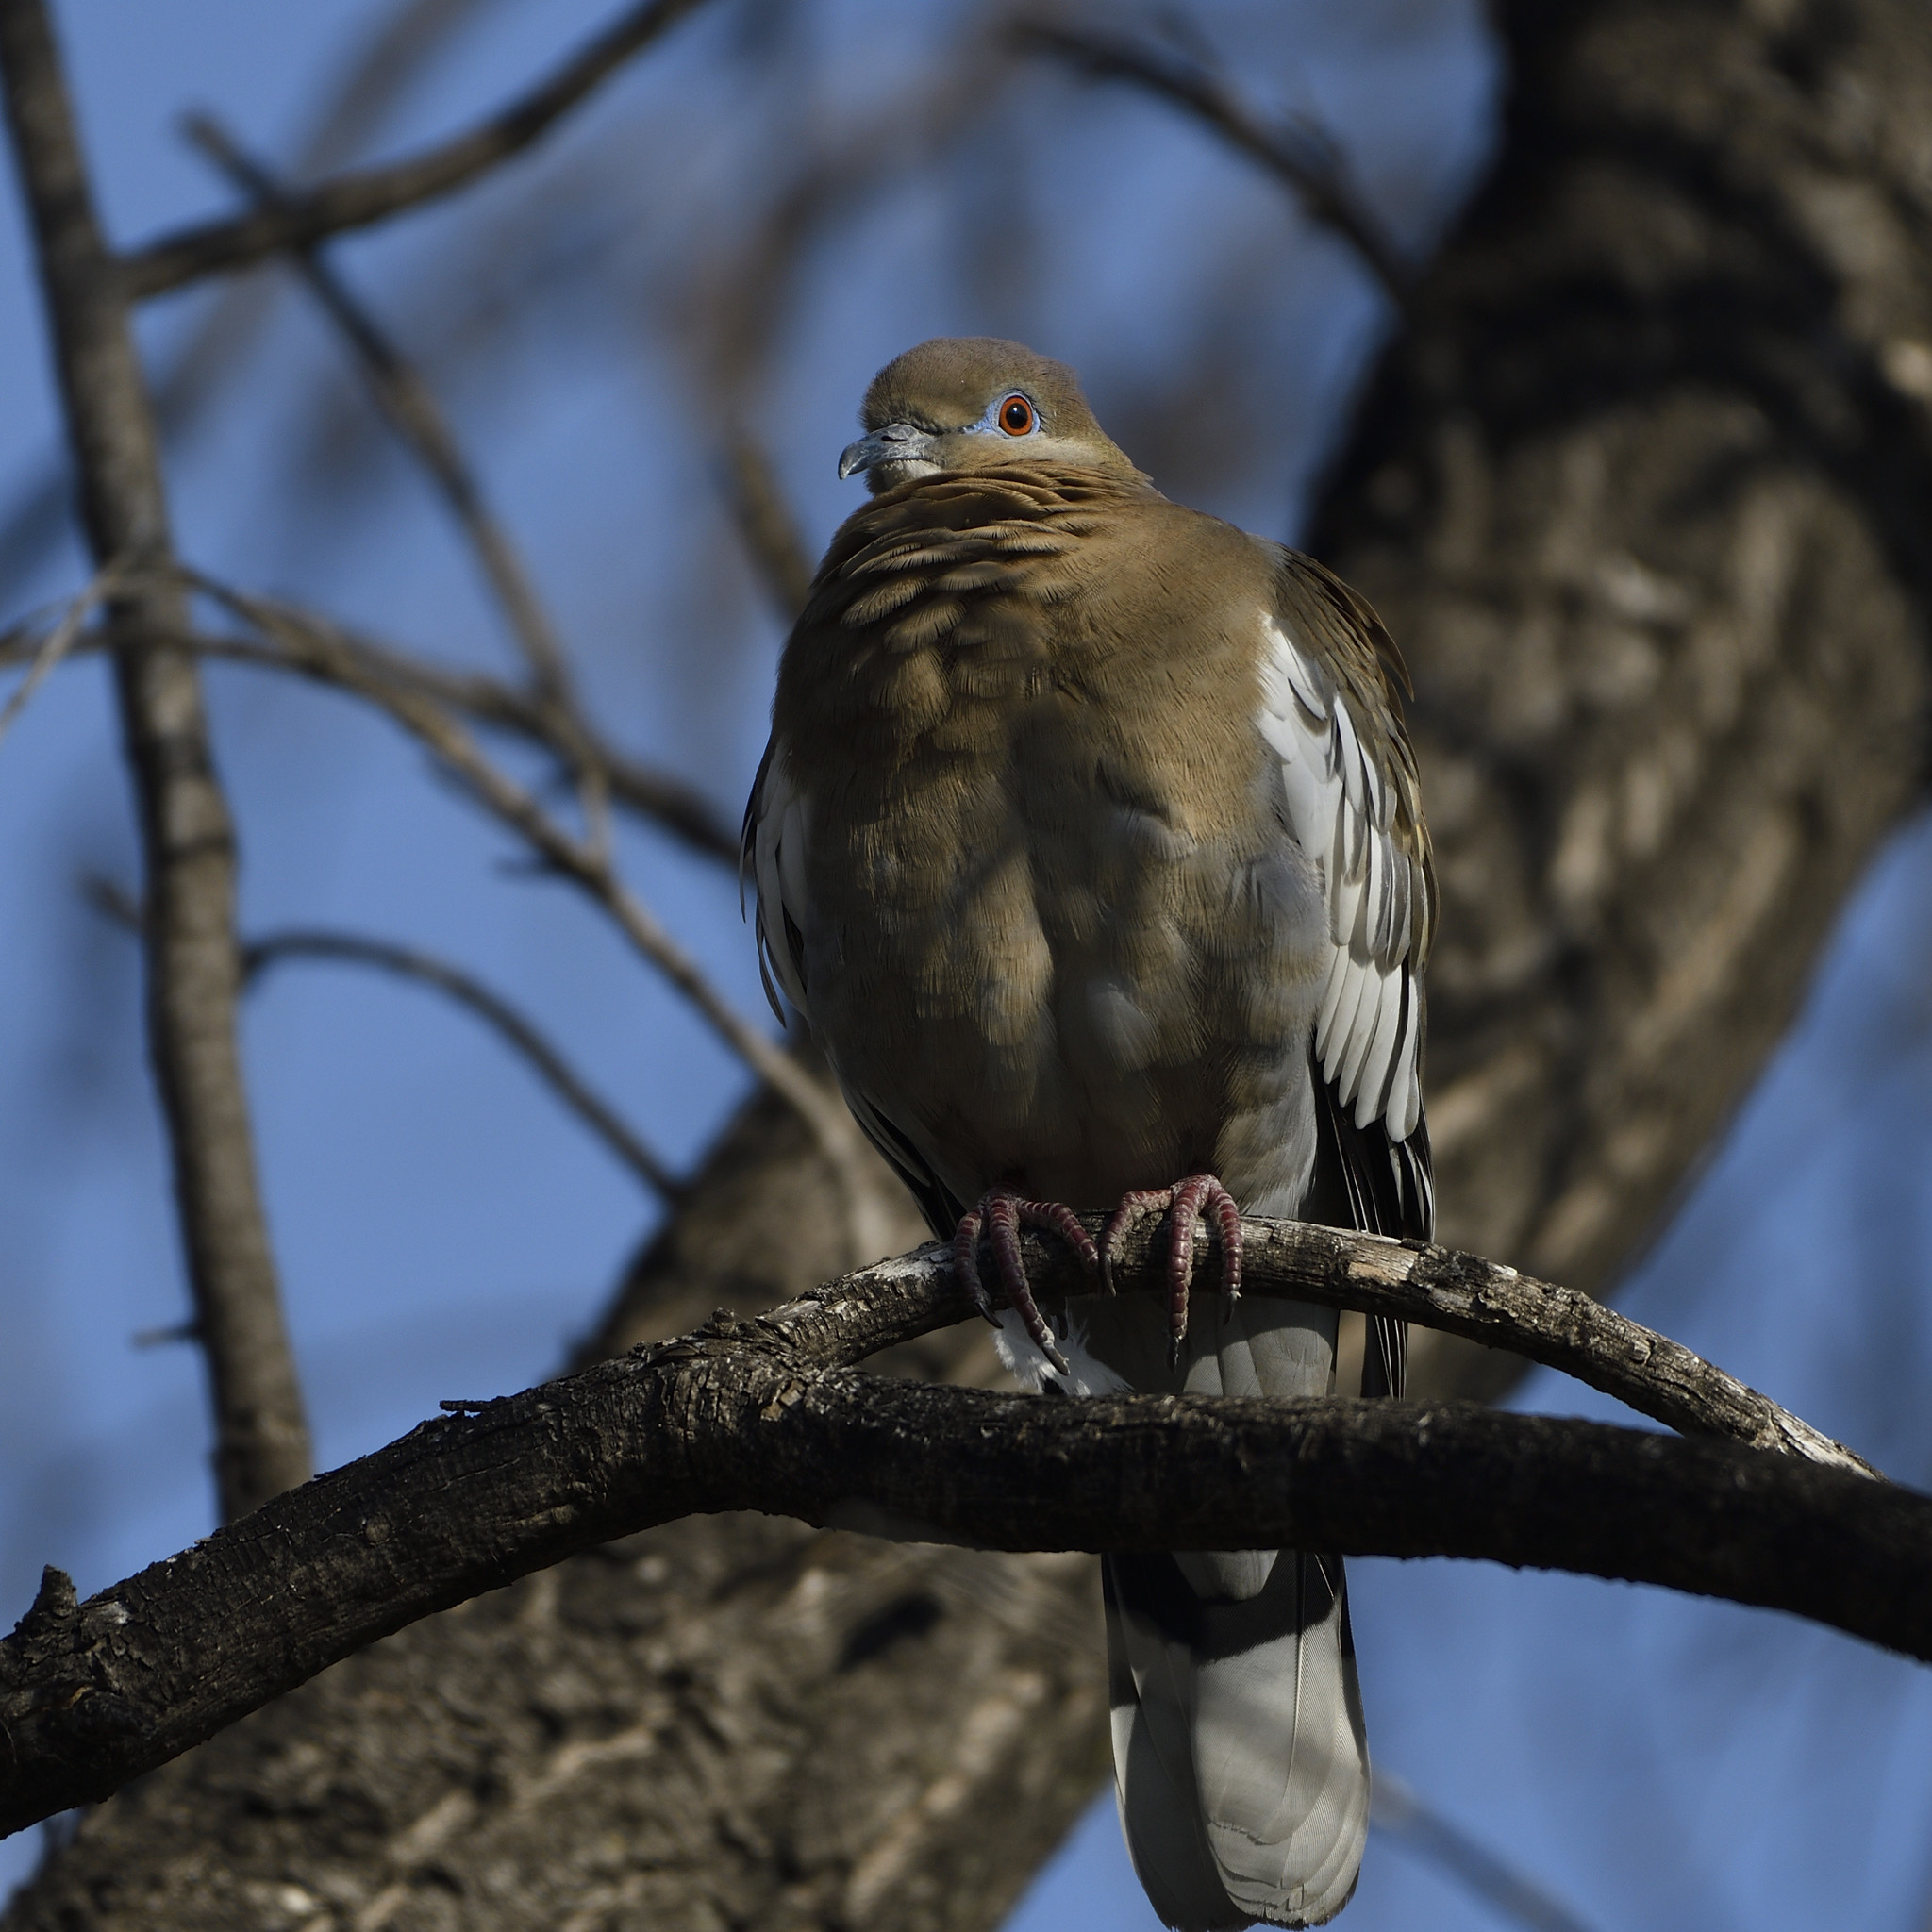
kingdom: Animalia
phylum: Chordata
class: Aves
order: Columbiformes
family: Columbidae
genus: Zenaida
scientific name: Zenaida asiatica
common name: White-winged dove
